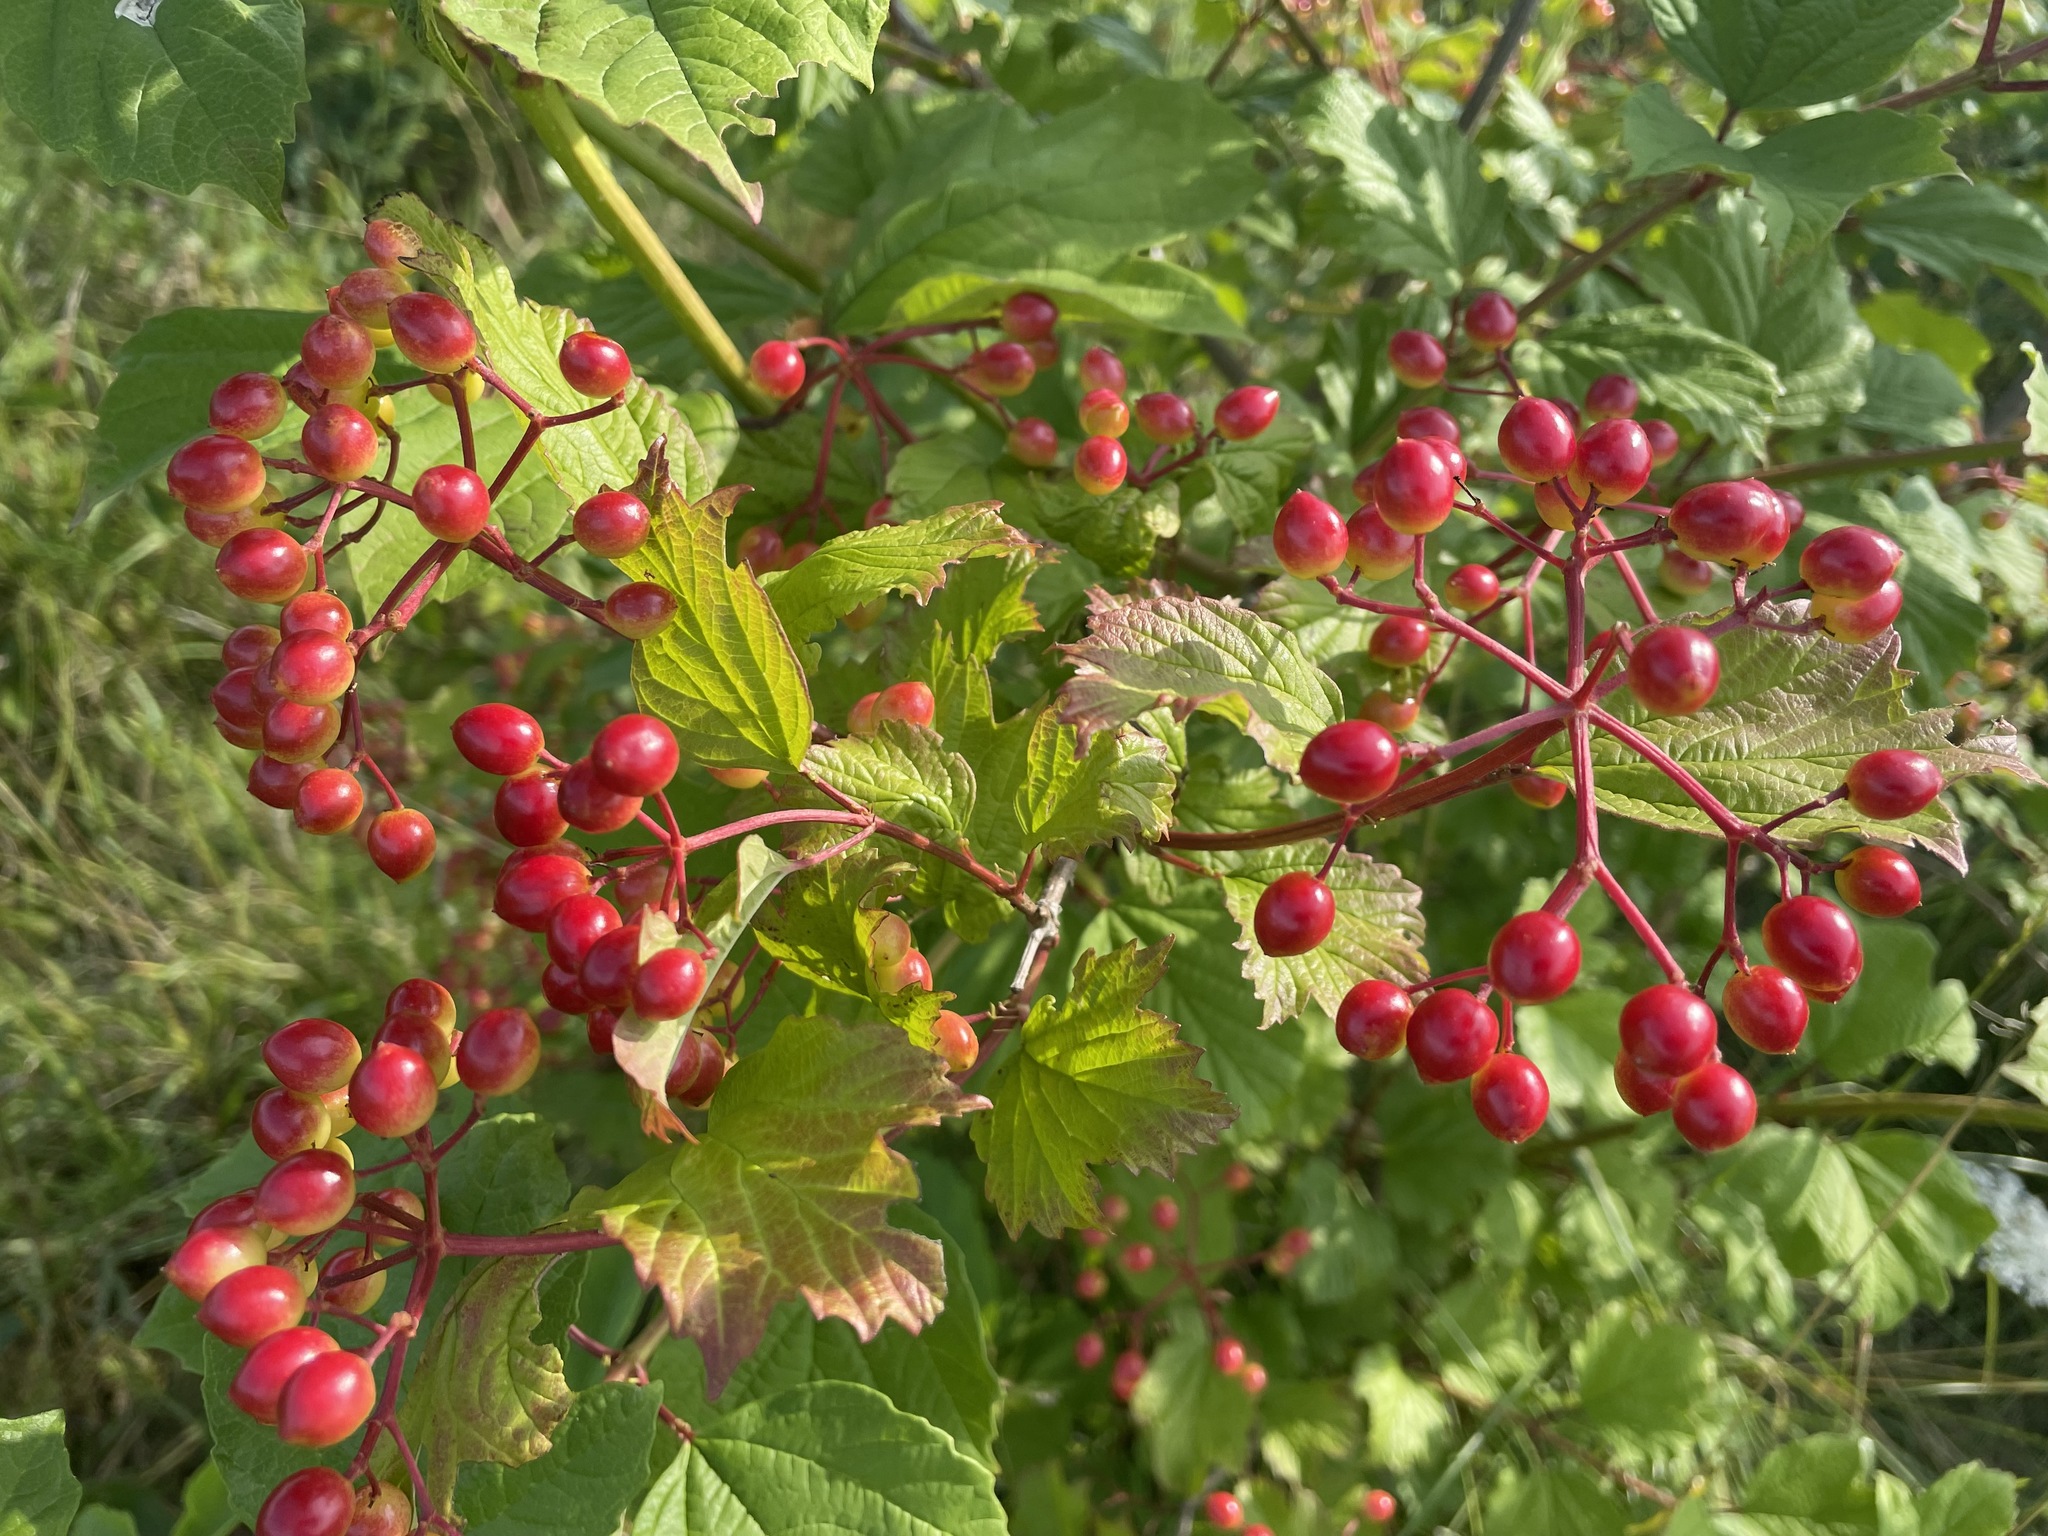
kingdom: Plantae
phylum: Tracheophyta
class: Magnoliopsida
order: Dipsacales
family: Viburnaceae
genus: Viburnum
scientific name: Viburnum opulus
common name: Guelder-rose
